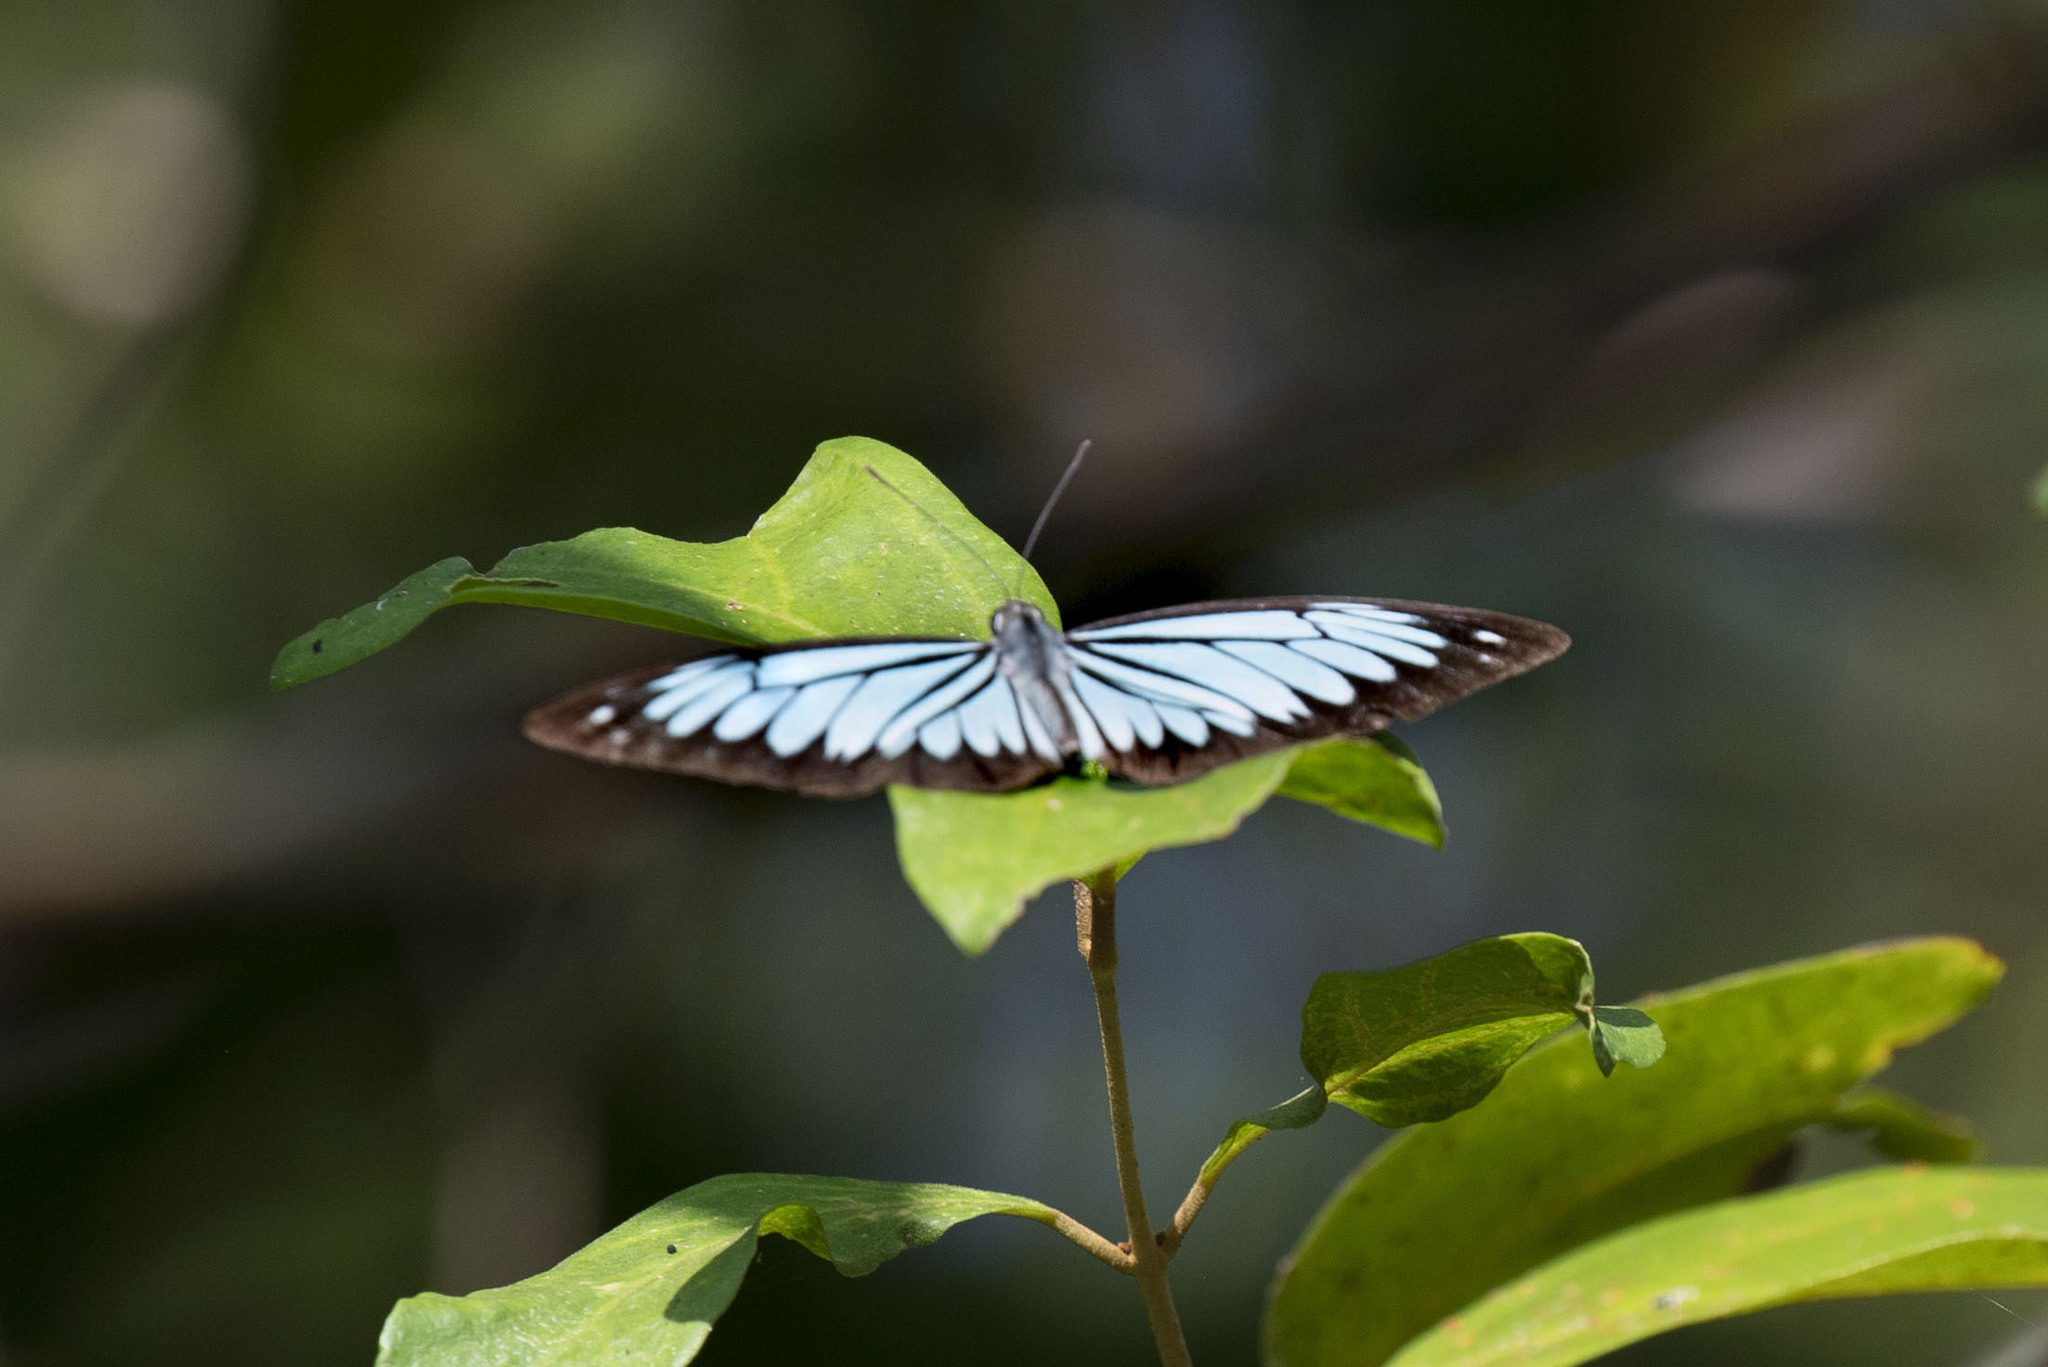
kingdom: Animalia
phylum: Arthropoda
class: Insecta
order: Lepidoptera
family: Pieridae
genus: Pareronia
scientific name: Pareronia ceylanica
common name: Dark wanderer
